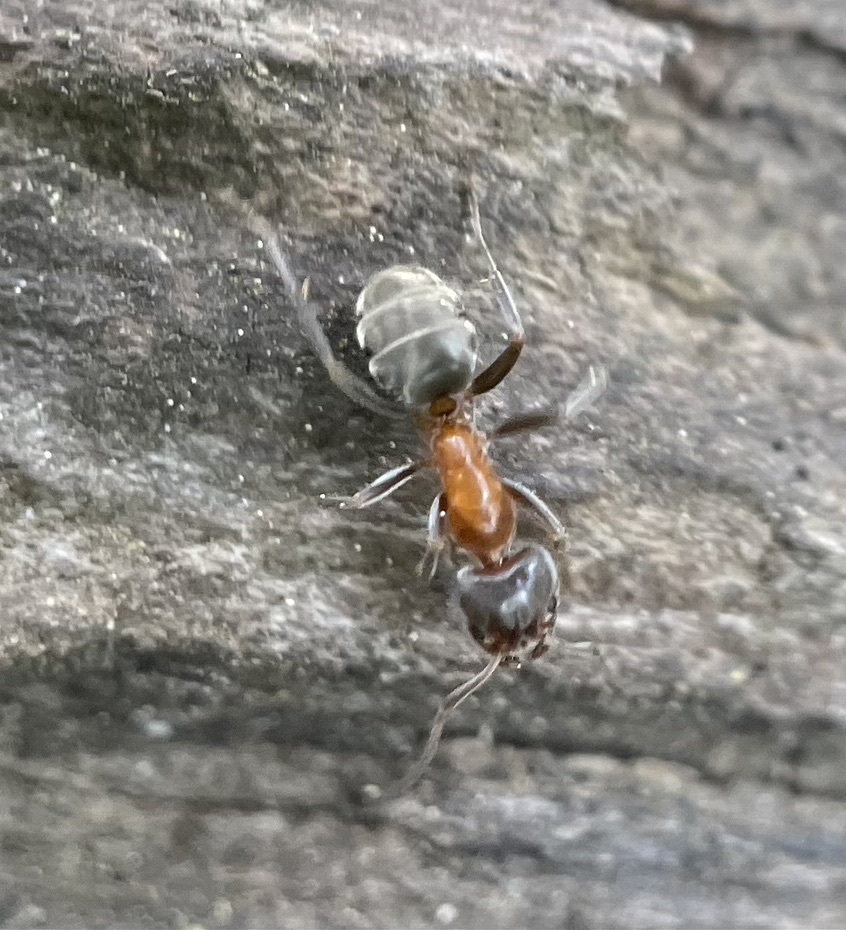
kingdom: Animalia
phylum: Arthropoda
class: Insecta
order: Hymenoptera
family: Formicidae
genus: Liometopum
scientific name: Liometopum occidentale
